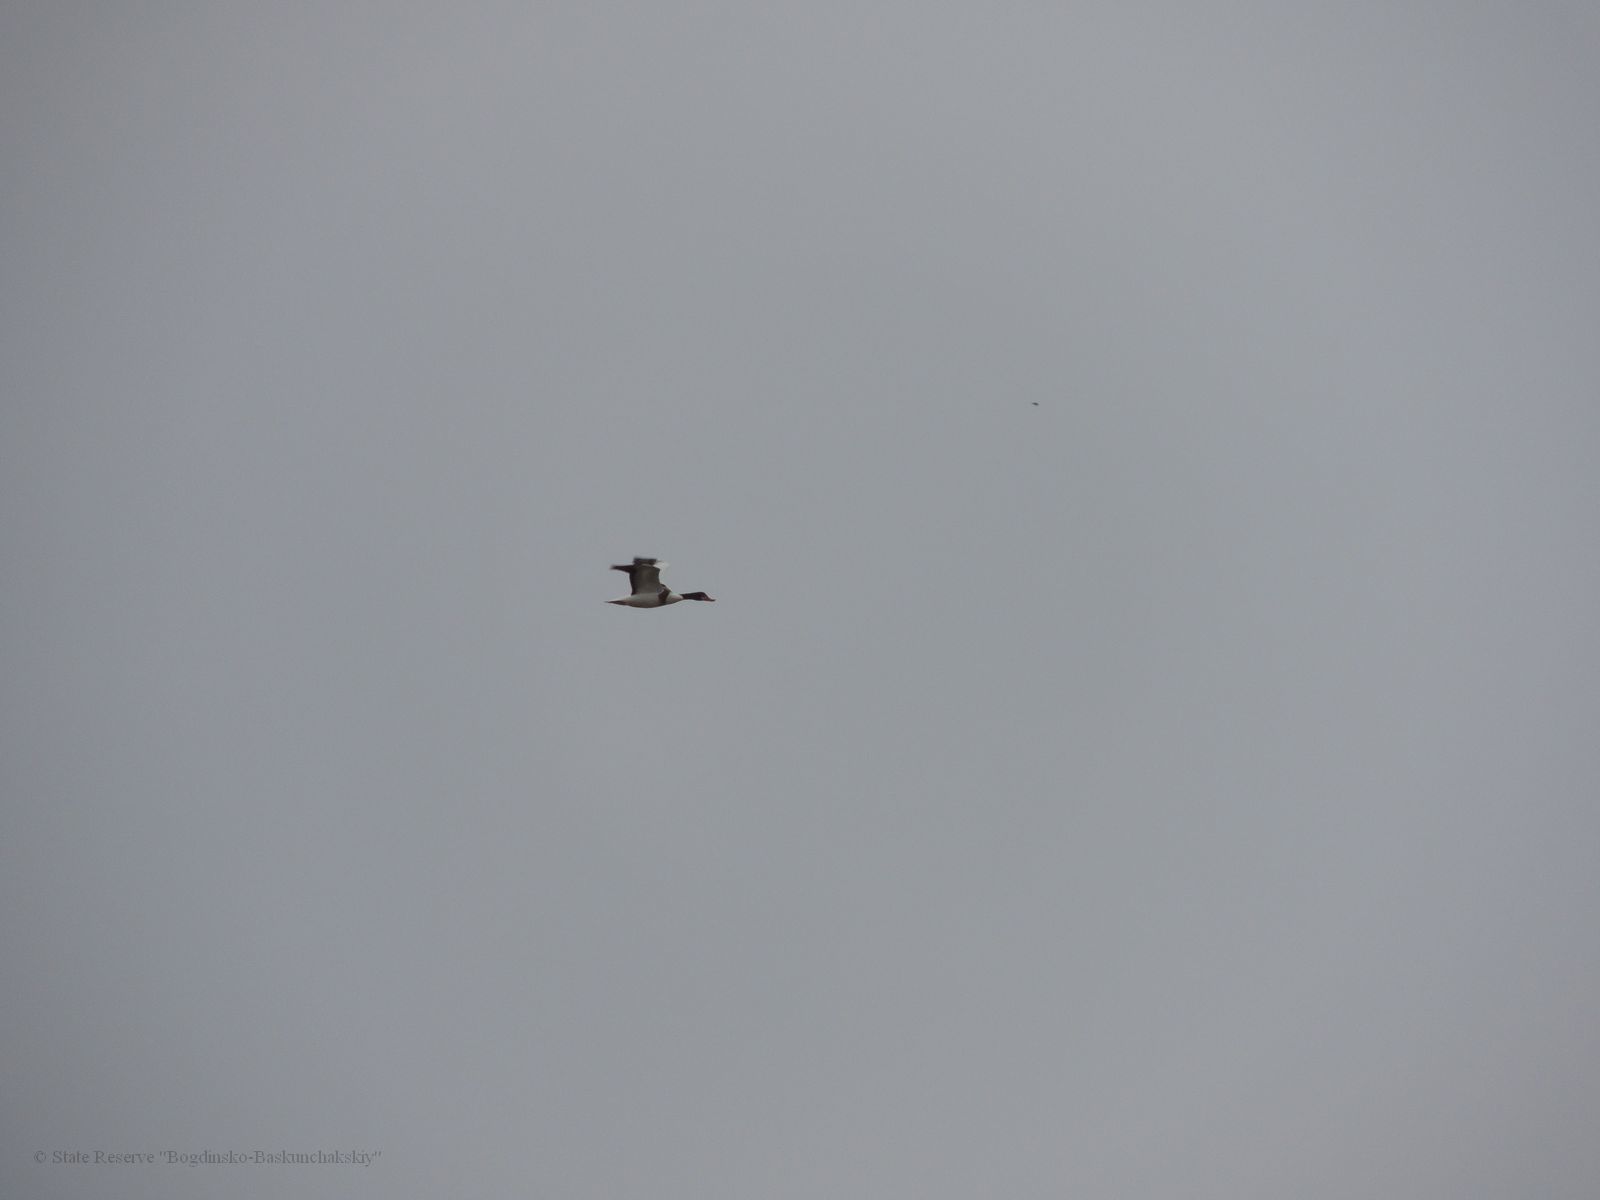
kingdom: Animalia
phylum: Chordata
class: Aves
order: Anseriformes
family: Anatidae
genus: Tadorna
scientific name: Tadorna tadorna
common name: Common shelduck
